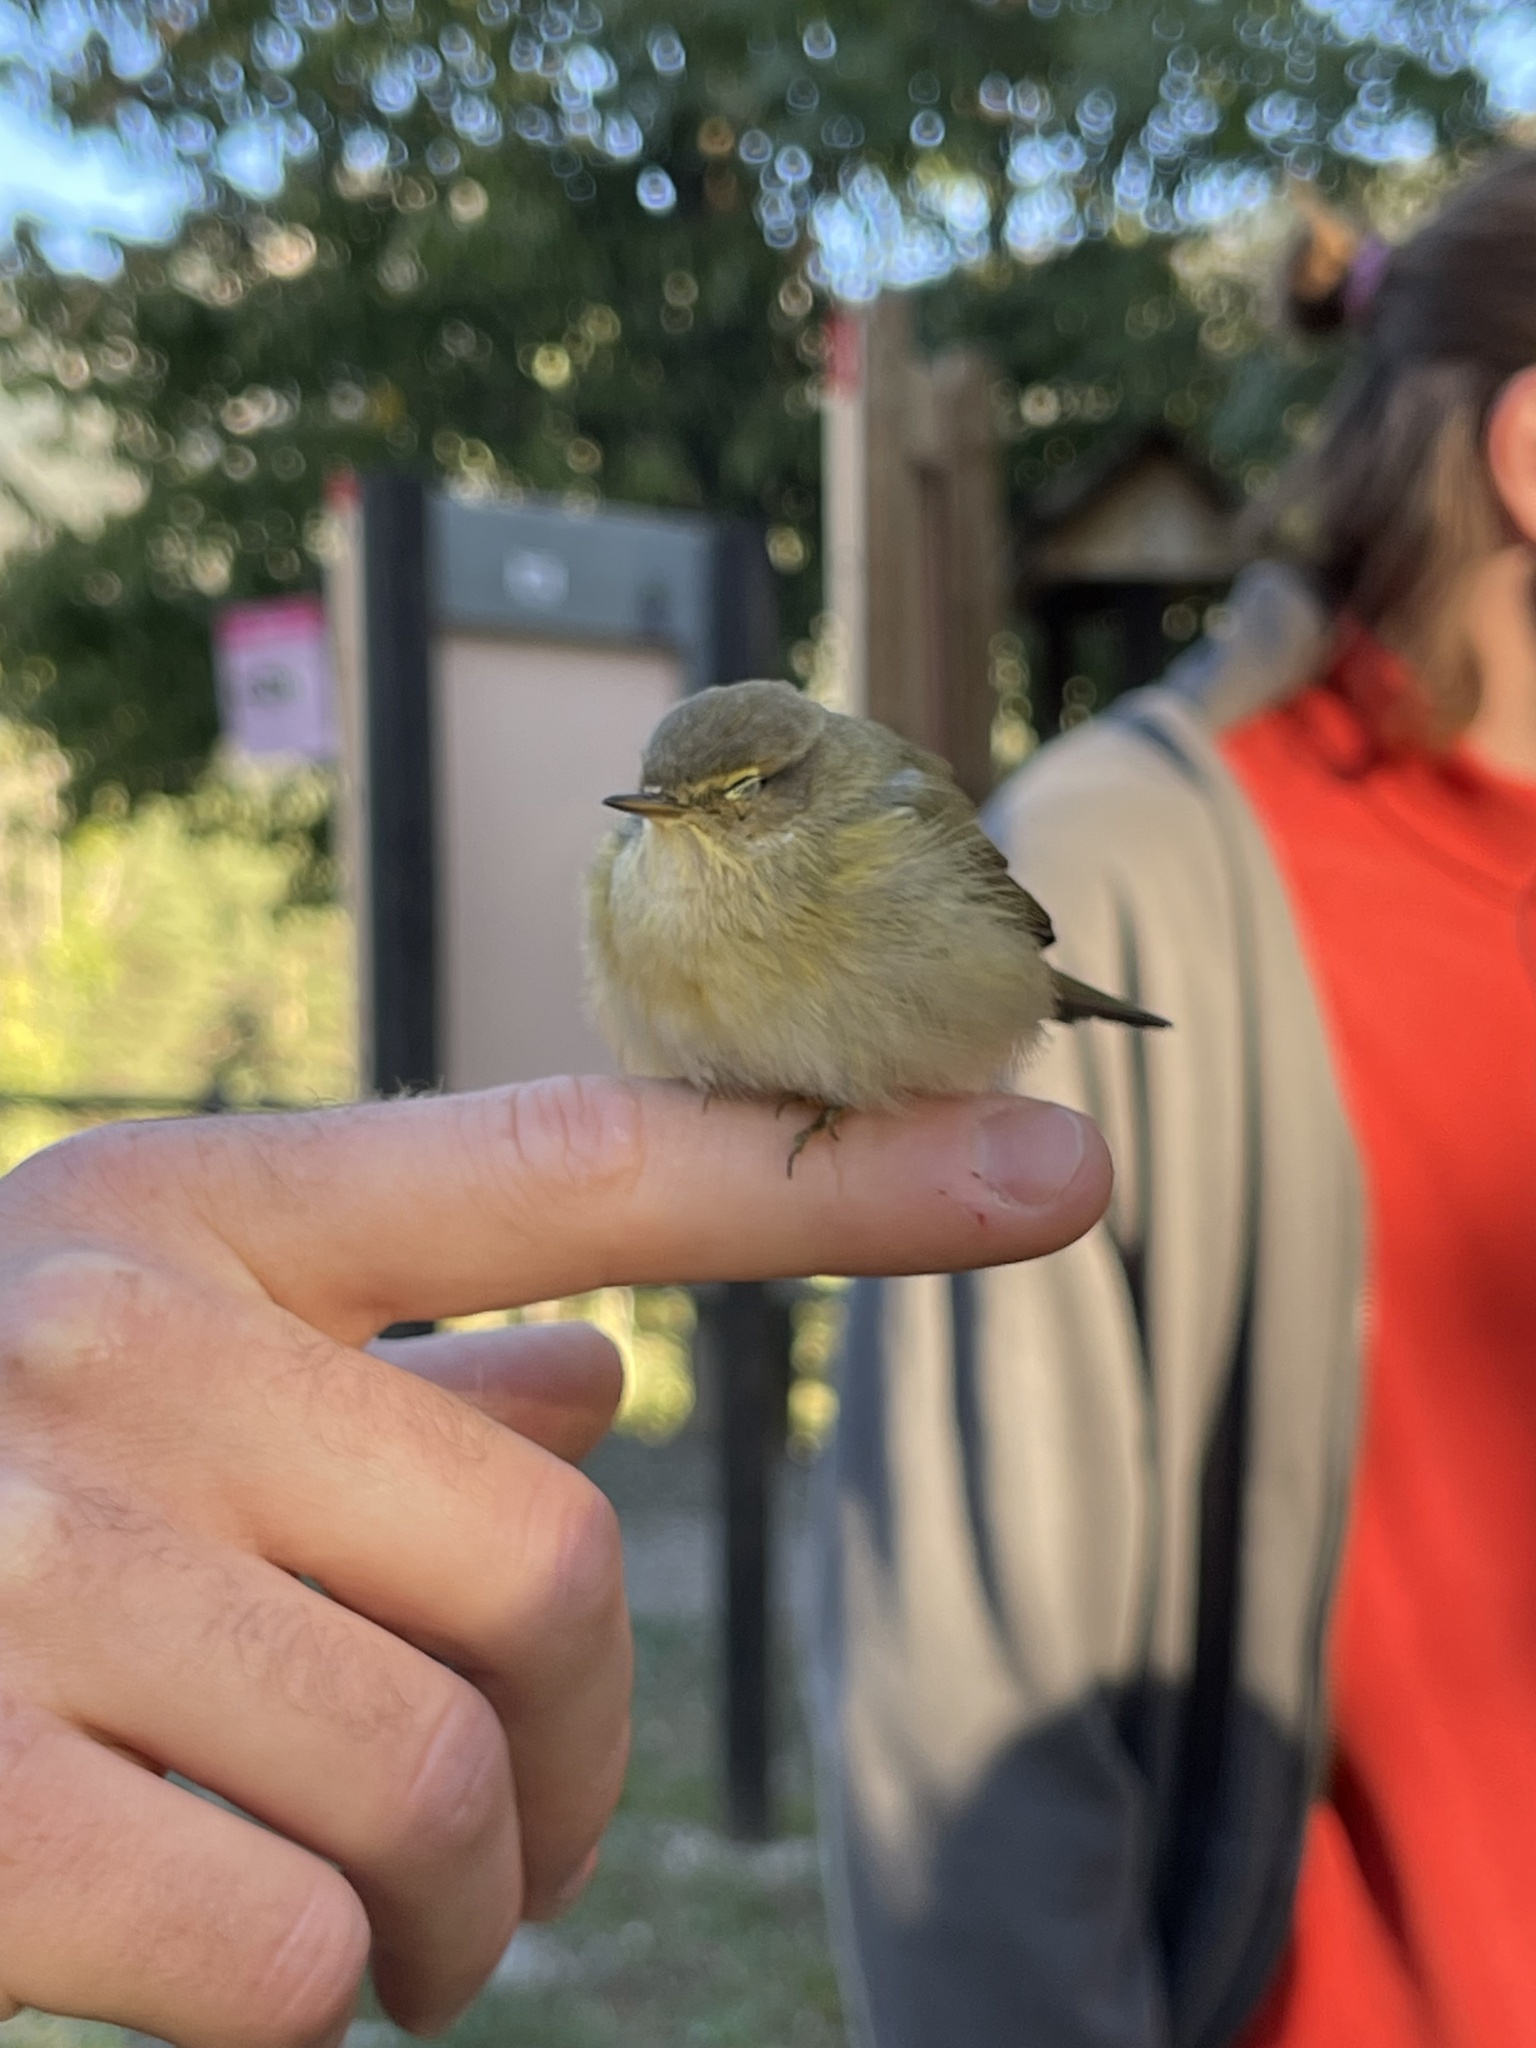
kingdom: Animalia
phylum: Chordata
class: Aves
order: Passeriformes
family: Phylloscopidae
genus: Phylloscopus
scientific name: Phylloscopus collybita
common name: Common chiffchaff
